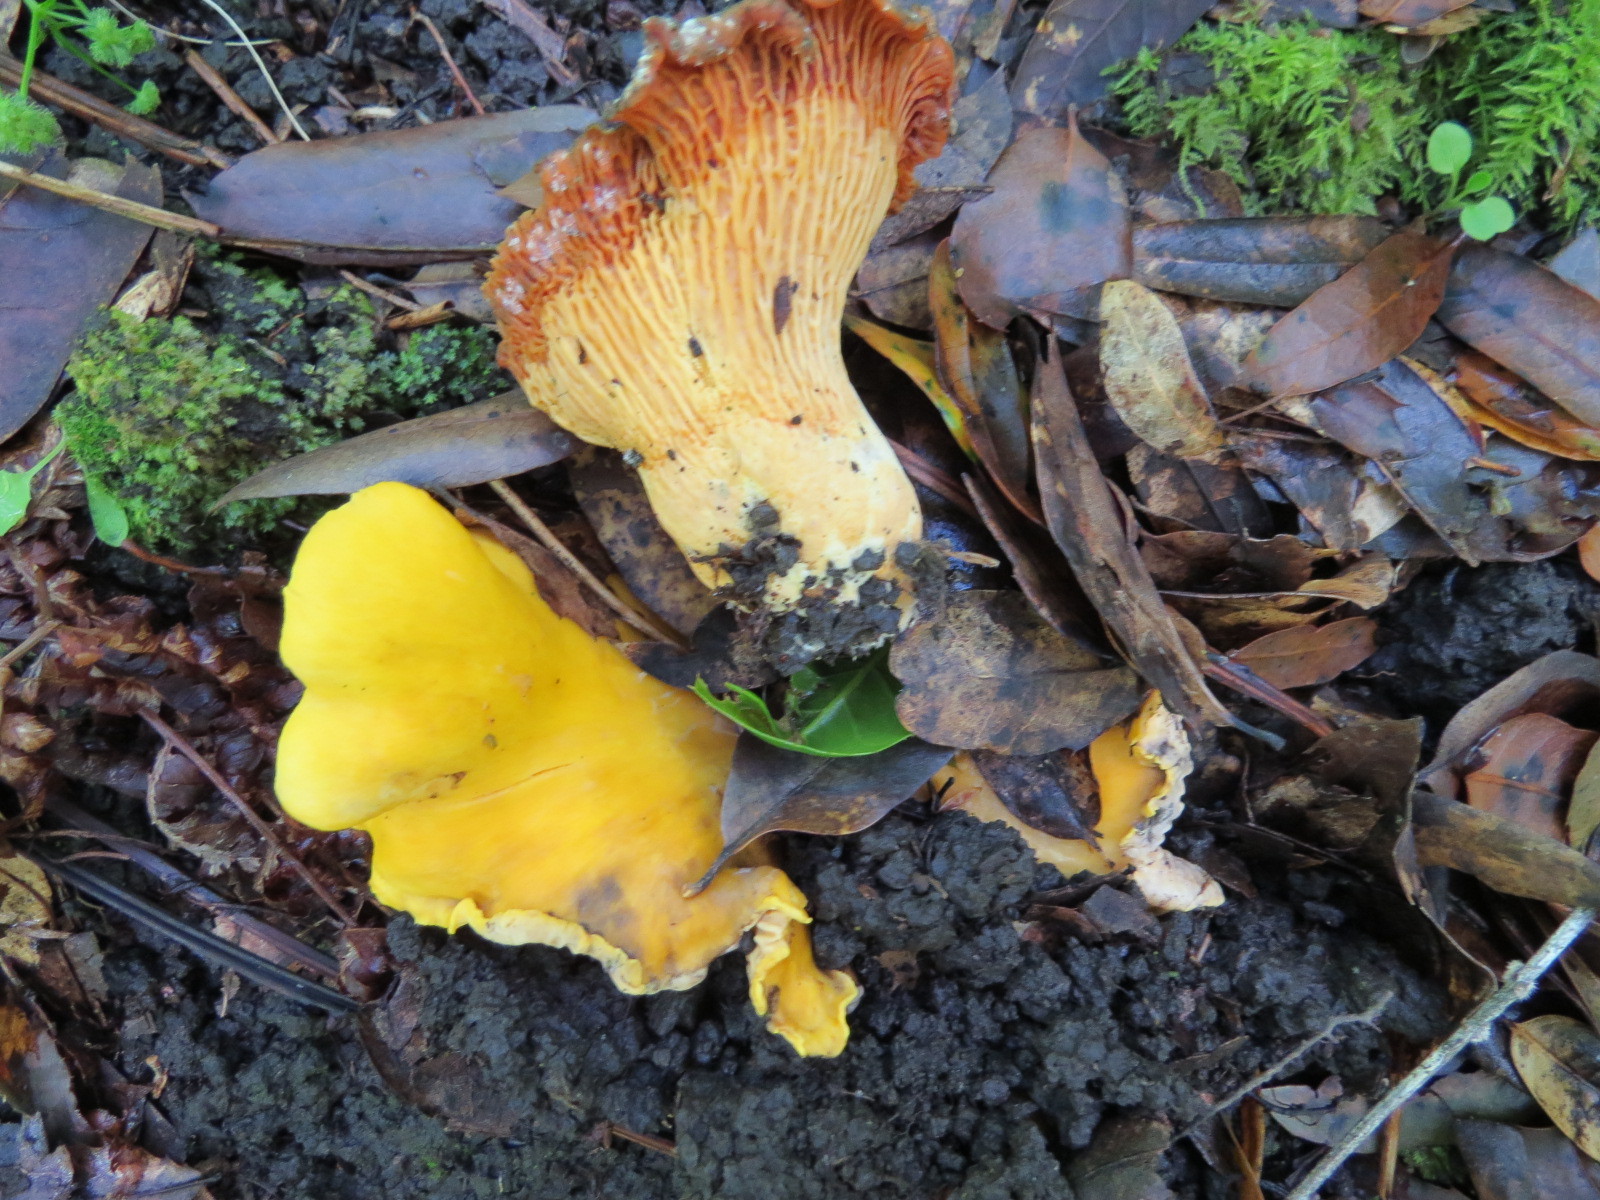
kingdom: Fungi
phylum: Basidiomycota
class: Agaricomycetes
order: Cantharellales
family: Hydnaceae
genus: Cantharellus
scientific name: Cantharellus californicus
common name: California golden chanterelle
